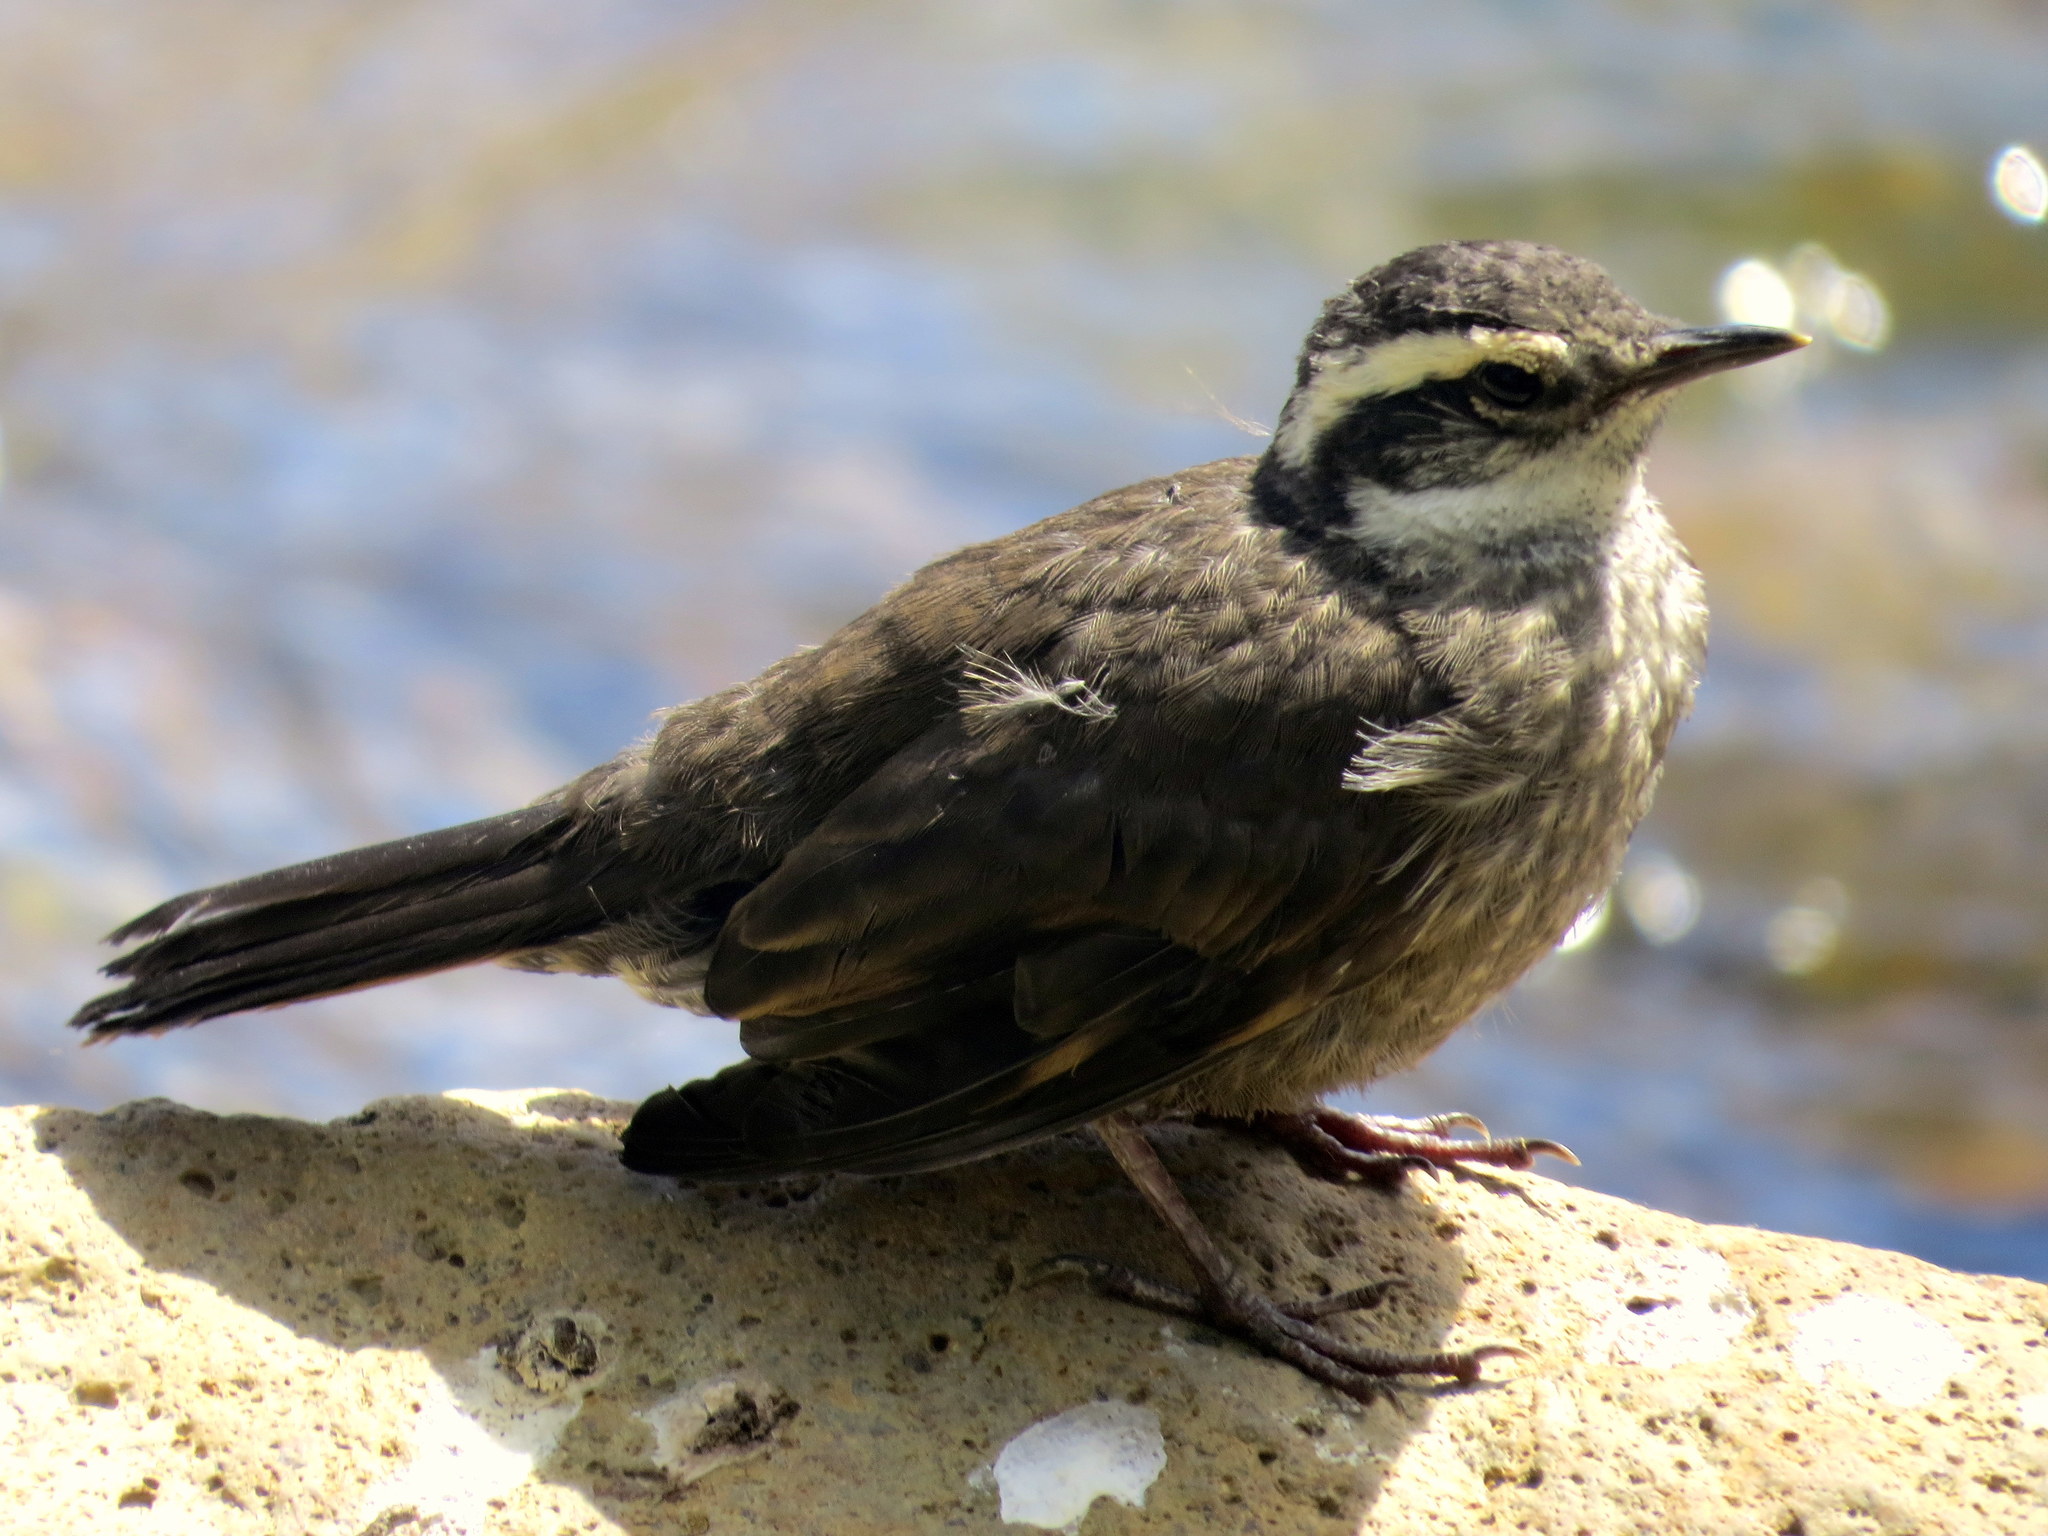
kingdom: Animalia
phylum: Chordata
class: Aves
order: Passeriformes
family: Furnariidae
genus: Cinclodes
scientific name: Cinclodes patagonicus
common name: Dark-bellied cinclodes
